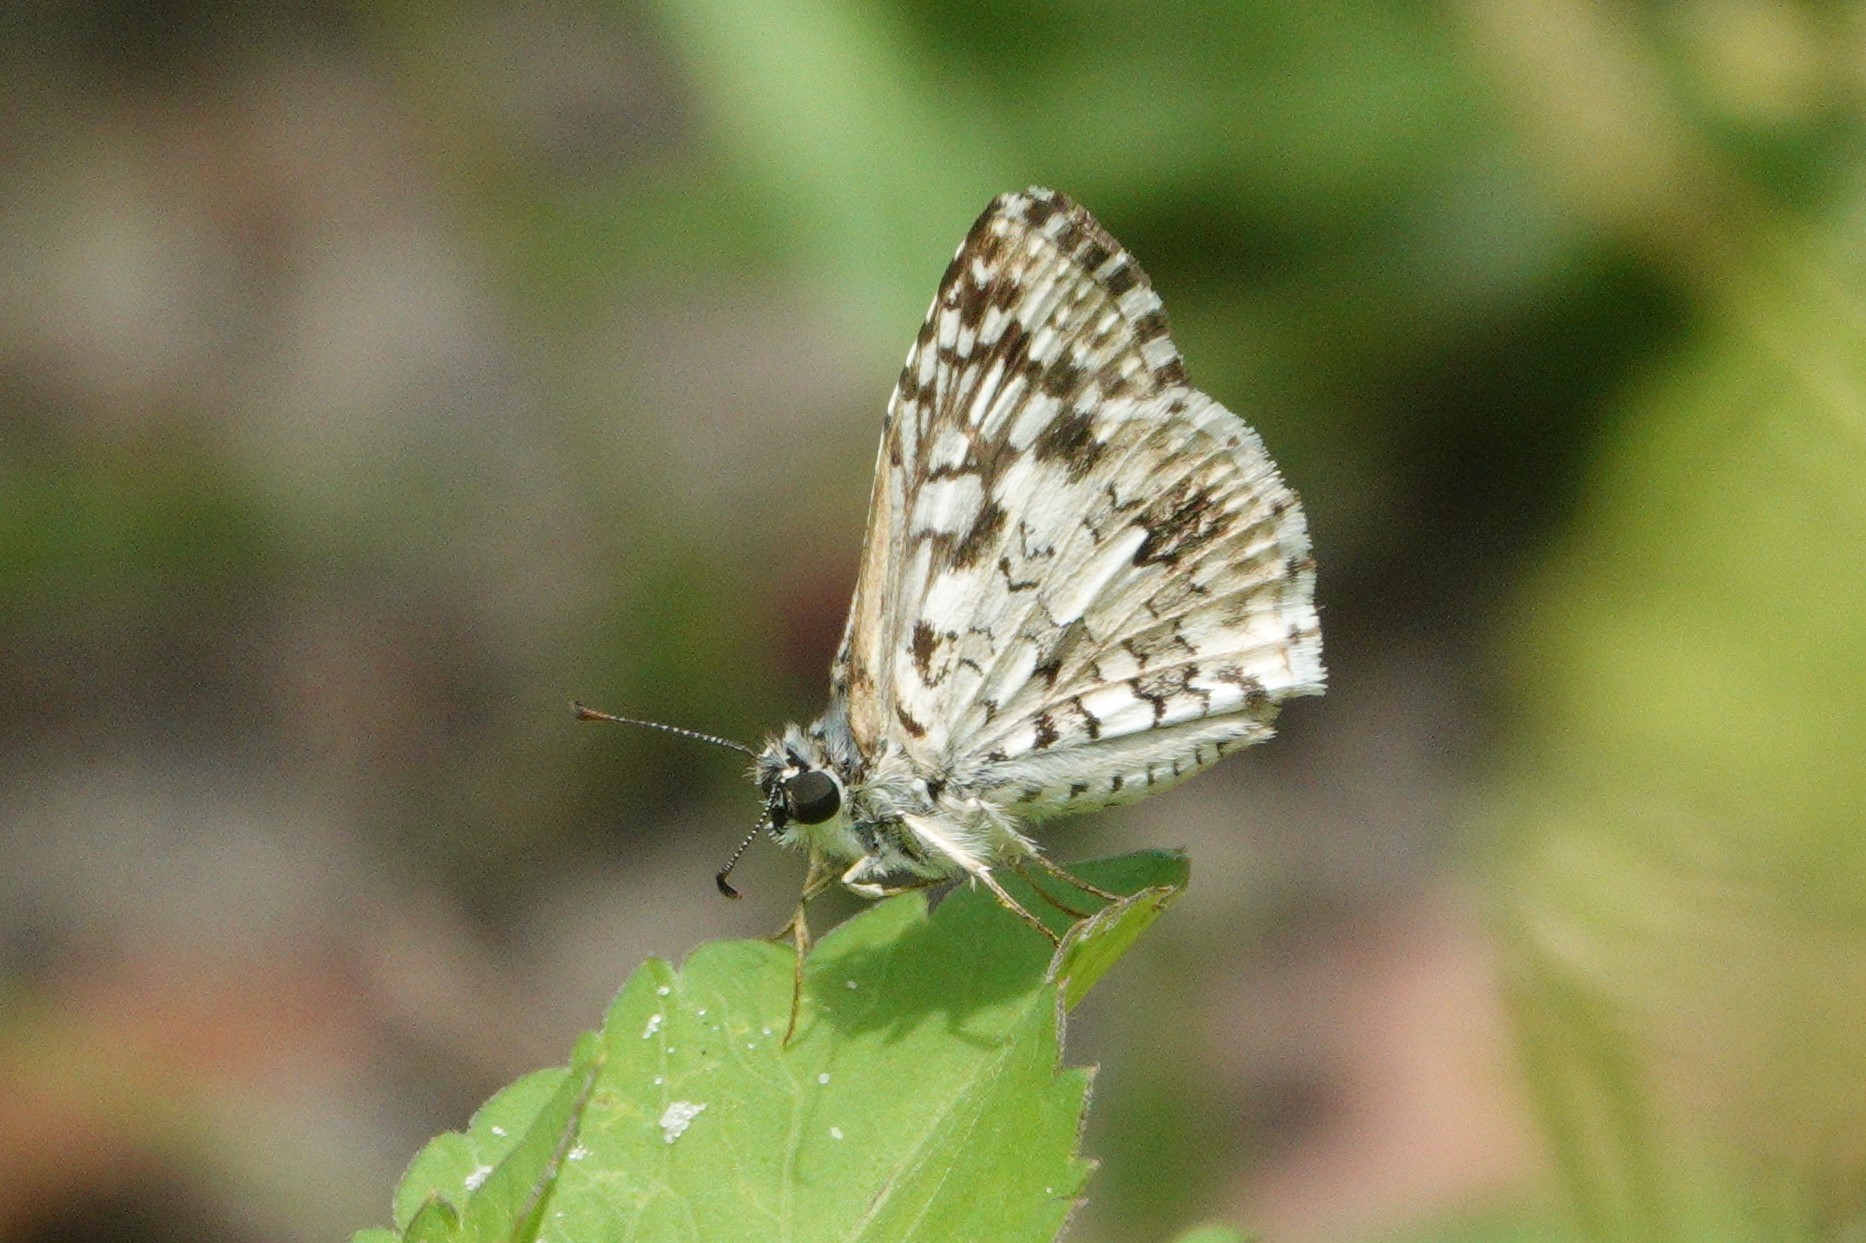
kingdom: Animalia
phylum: Arthropoda
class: Insecta
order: Lepidoptera
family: Hesperiidae
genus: Pyrgus
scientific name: Pyrgus oileus
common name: Tropical checkered-skipper
